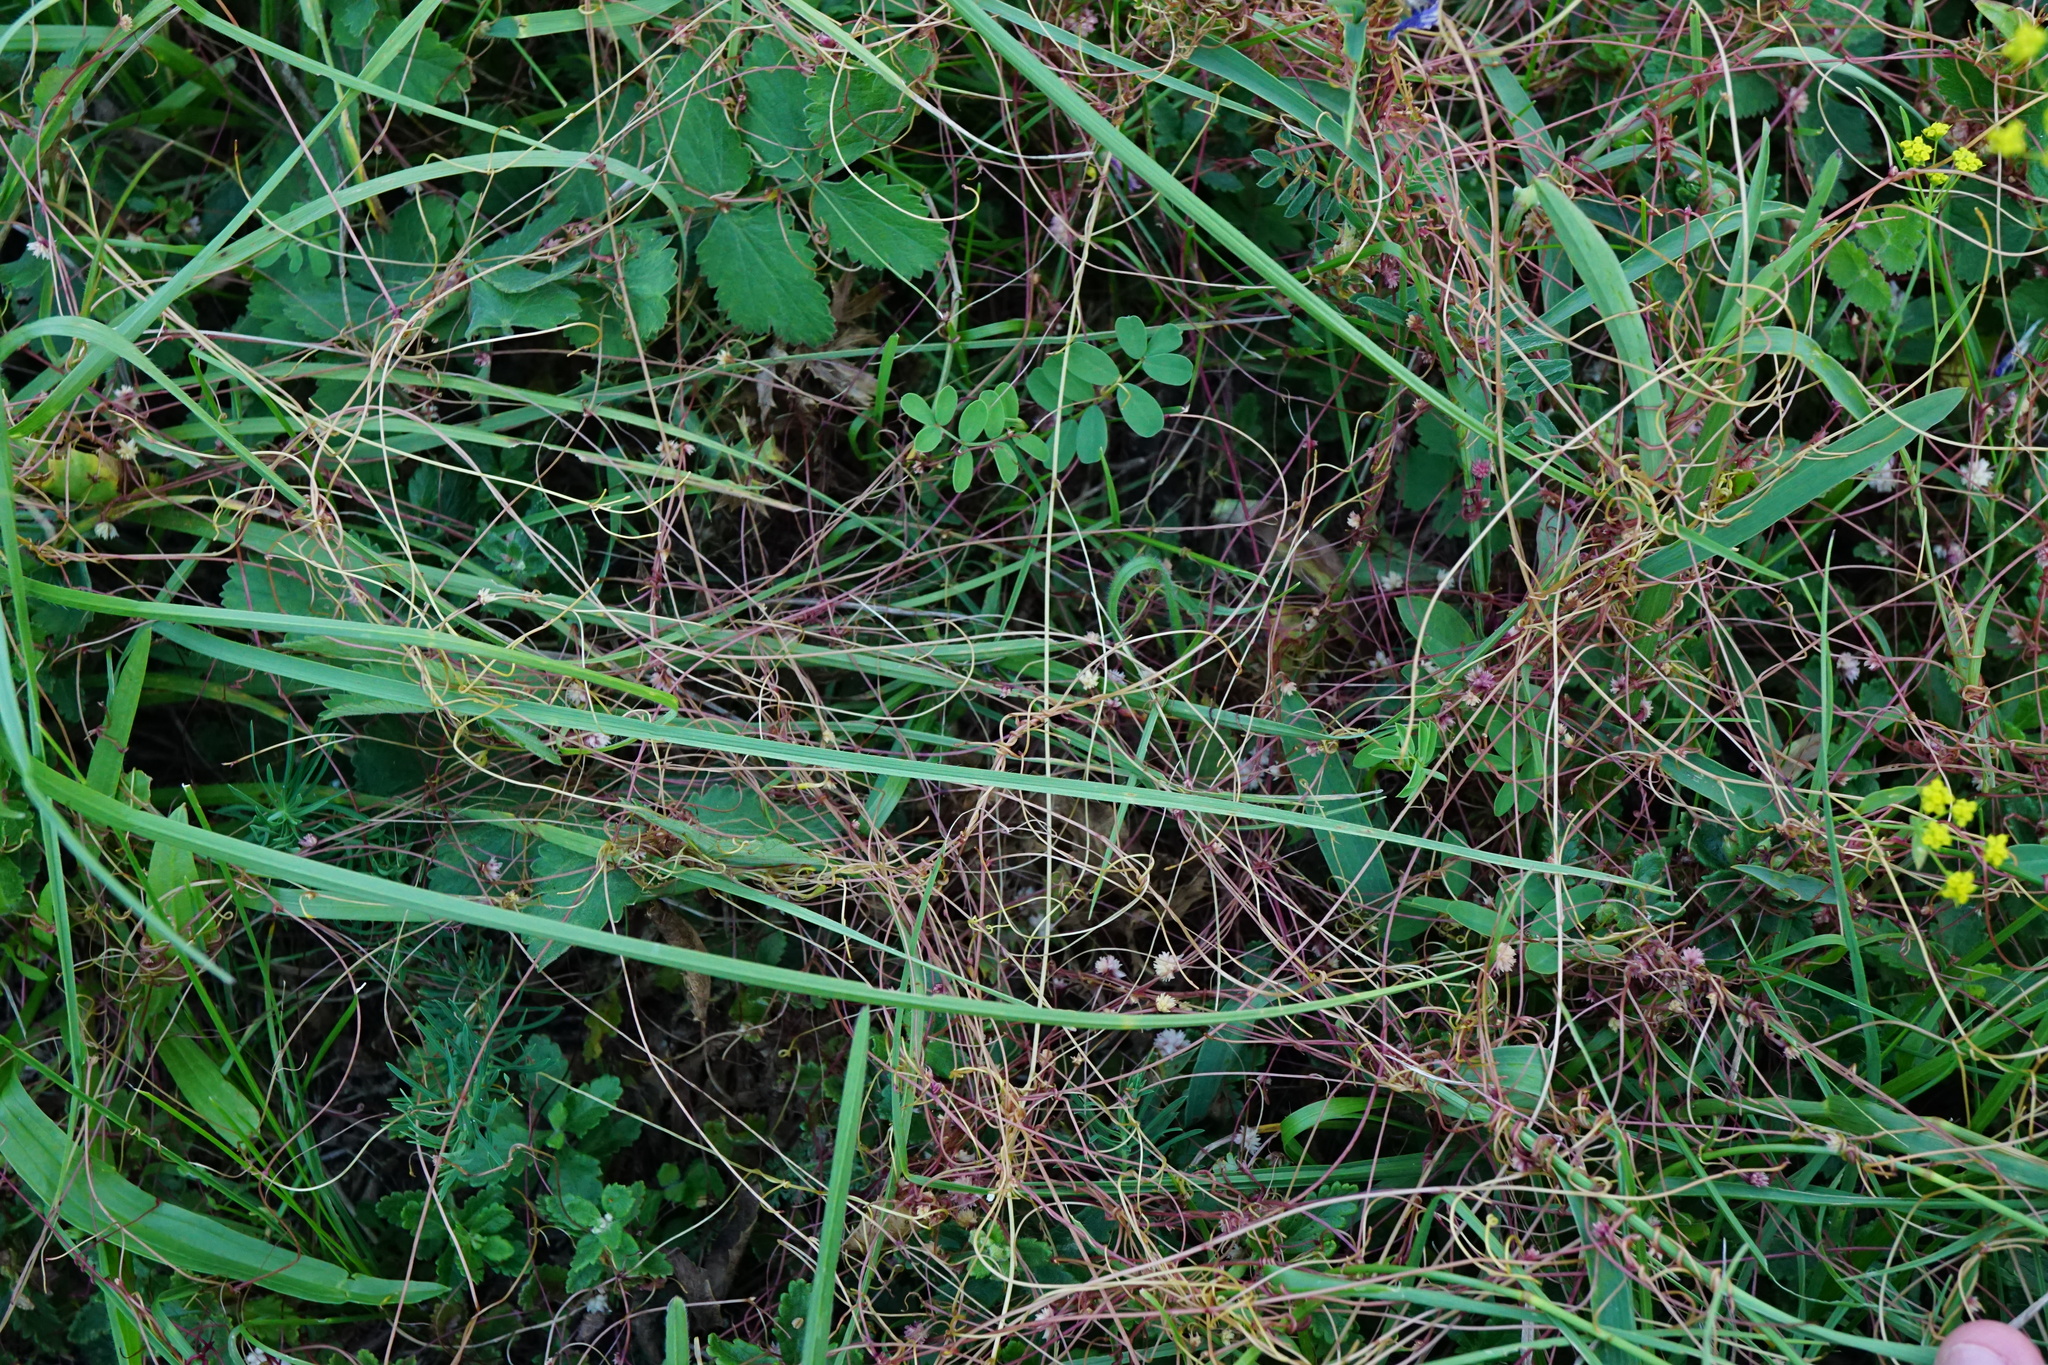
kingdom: Plantae
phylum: Tracheophyta
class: Magnoliopsida
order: Solanales
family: Convolvulaceae
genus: Cuscuta
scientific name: Cuscuta epithymum
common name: Clover dodder
